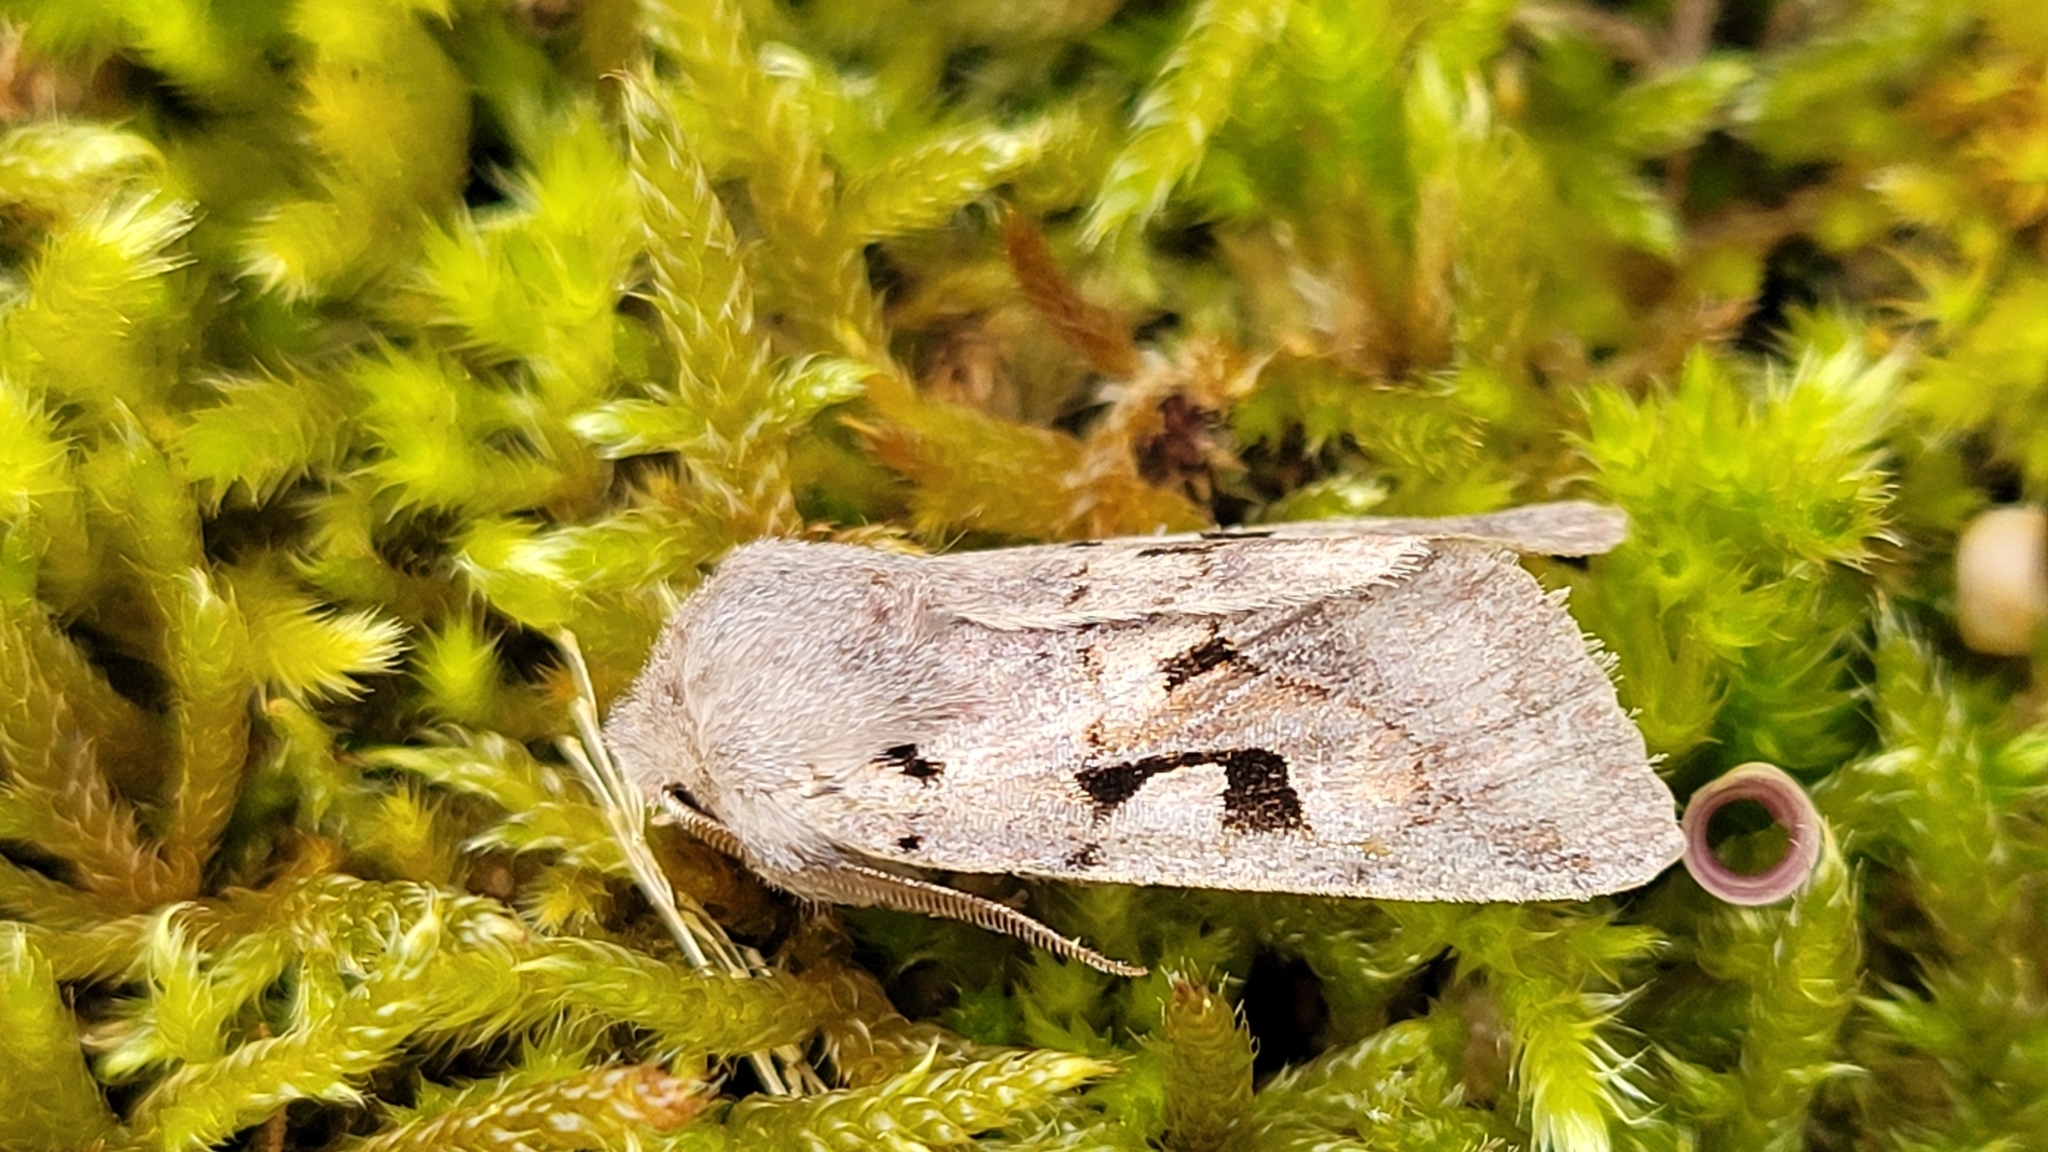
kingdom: Animalia
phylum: Arthropoda
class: Insecta
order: Lepidoptera
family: Noctuidae
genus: Orthosia
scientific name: Orthosia gothica
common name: Hebrew character
